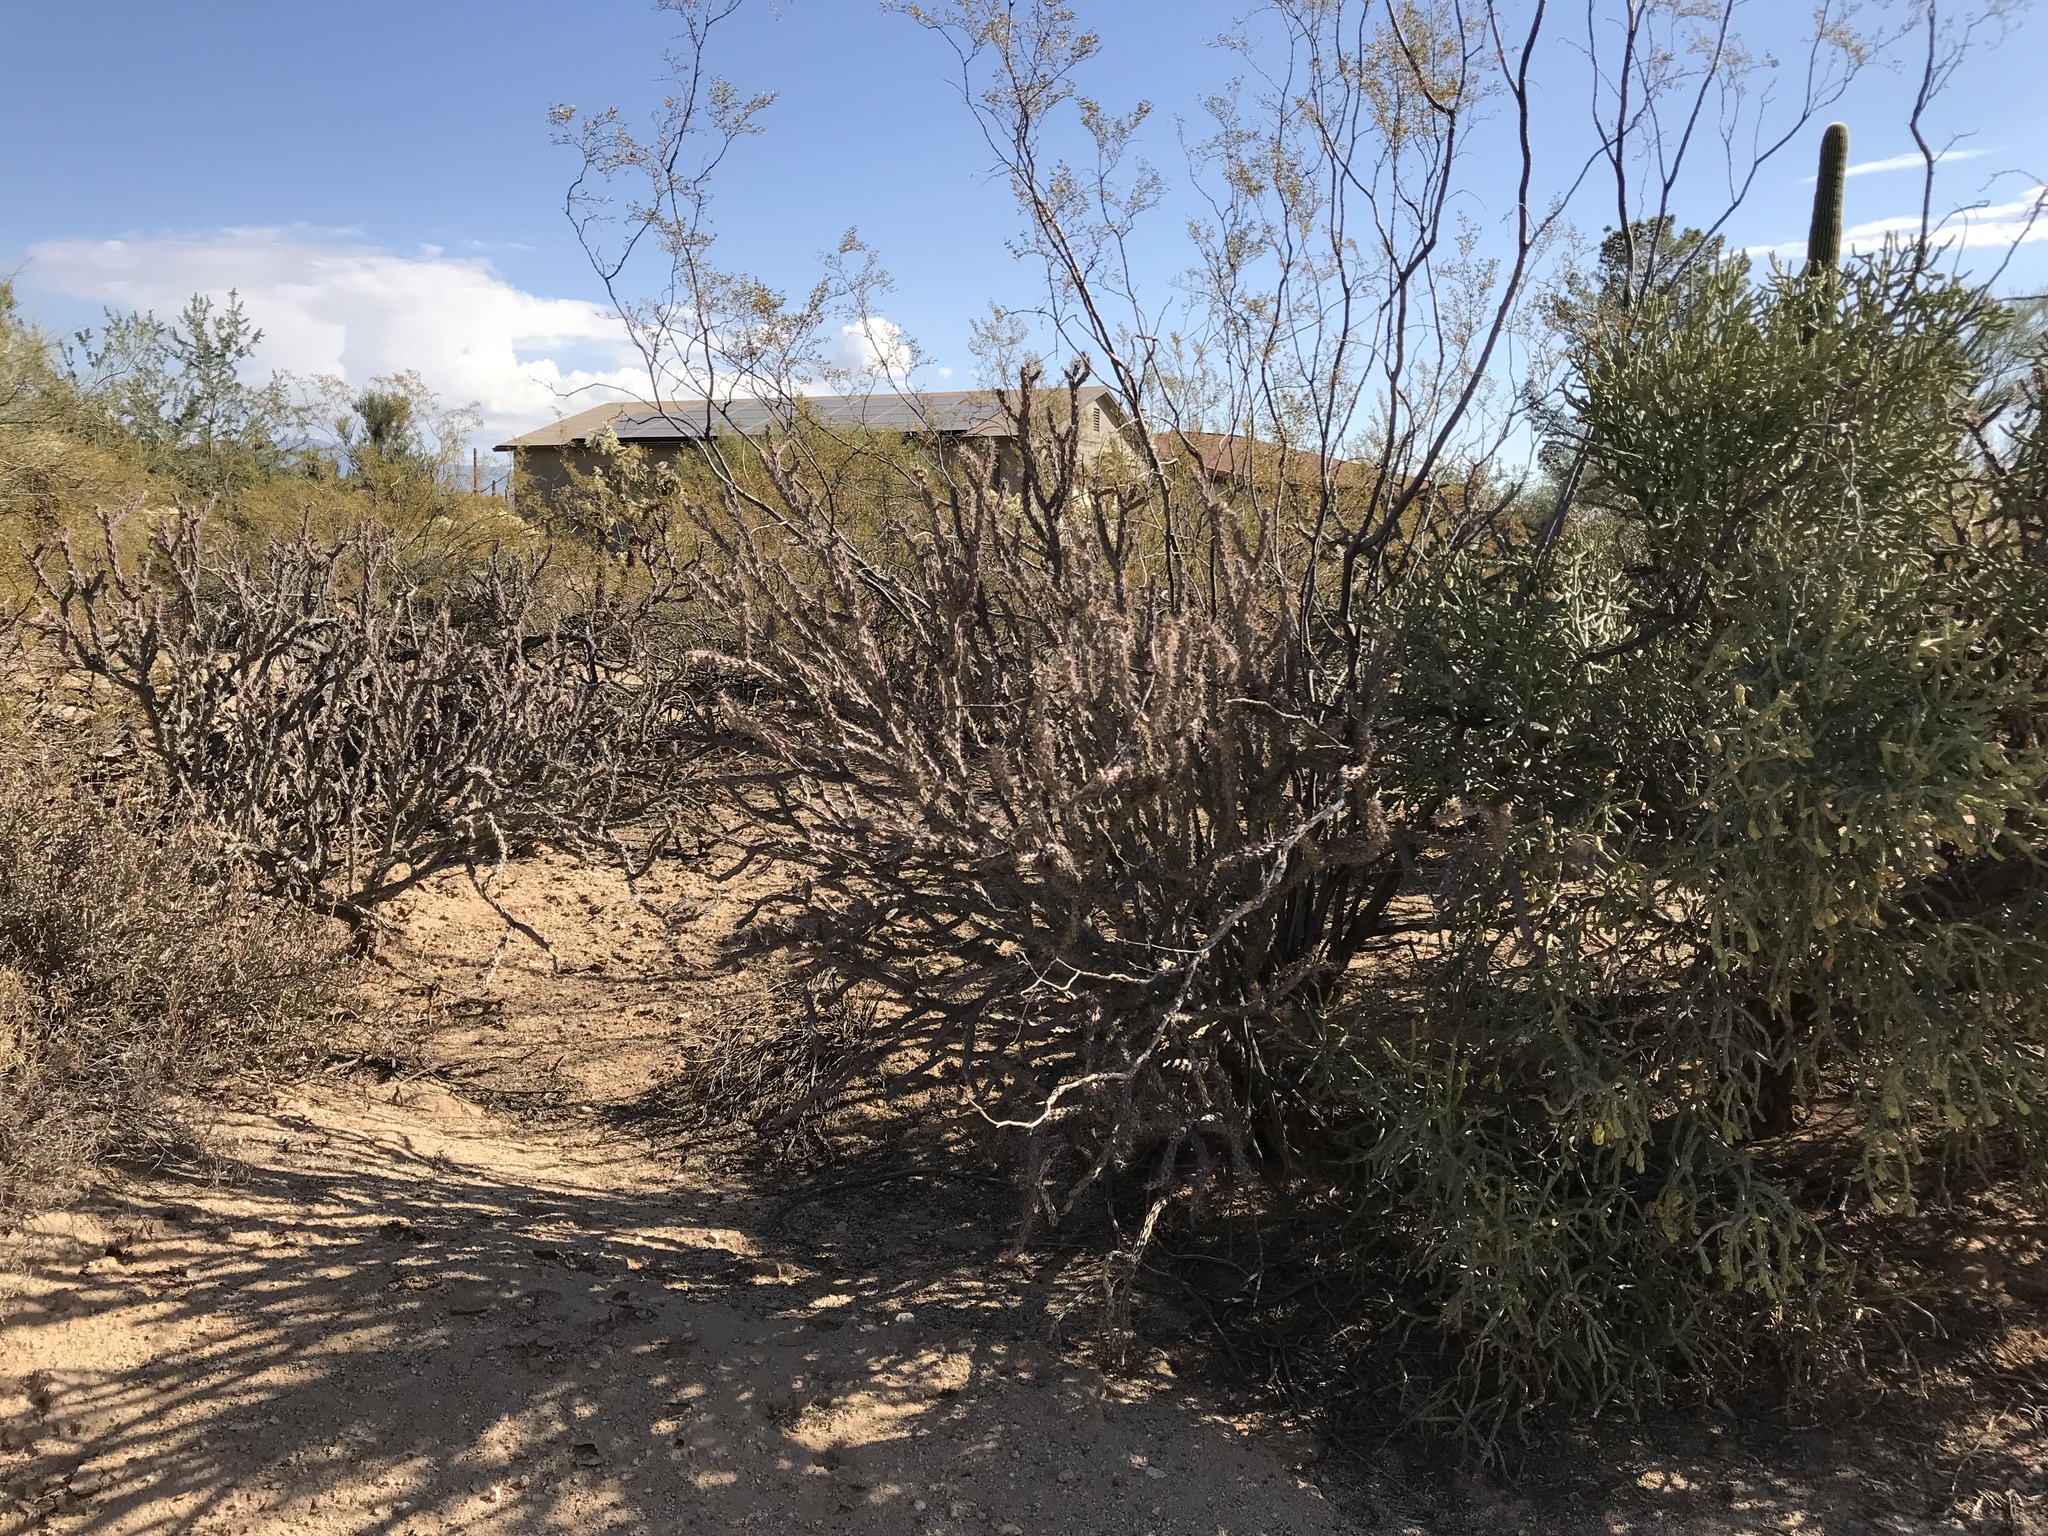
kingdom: Plantae
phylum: Tracheophyta
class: Magnoliopsida
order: Zygophyllales
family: Zygophyllaceae
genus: Larrea
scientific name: Larrea tridentata
